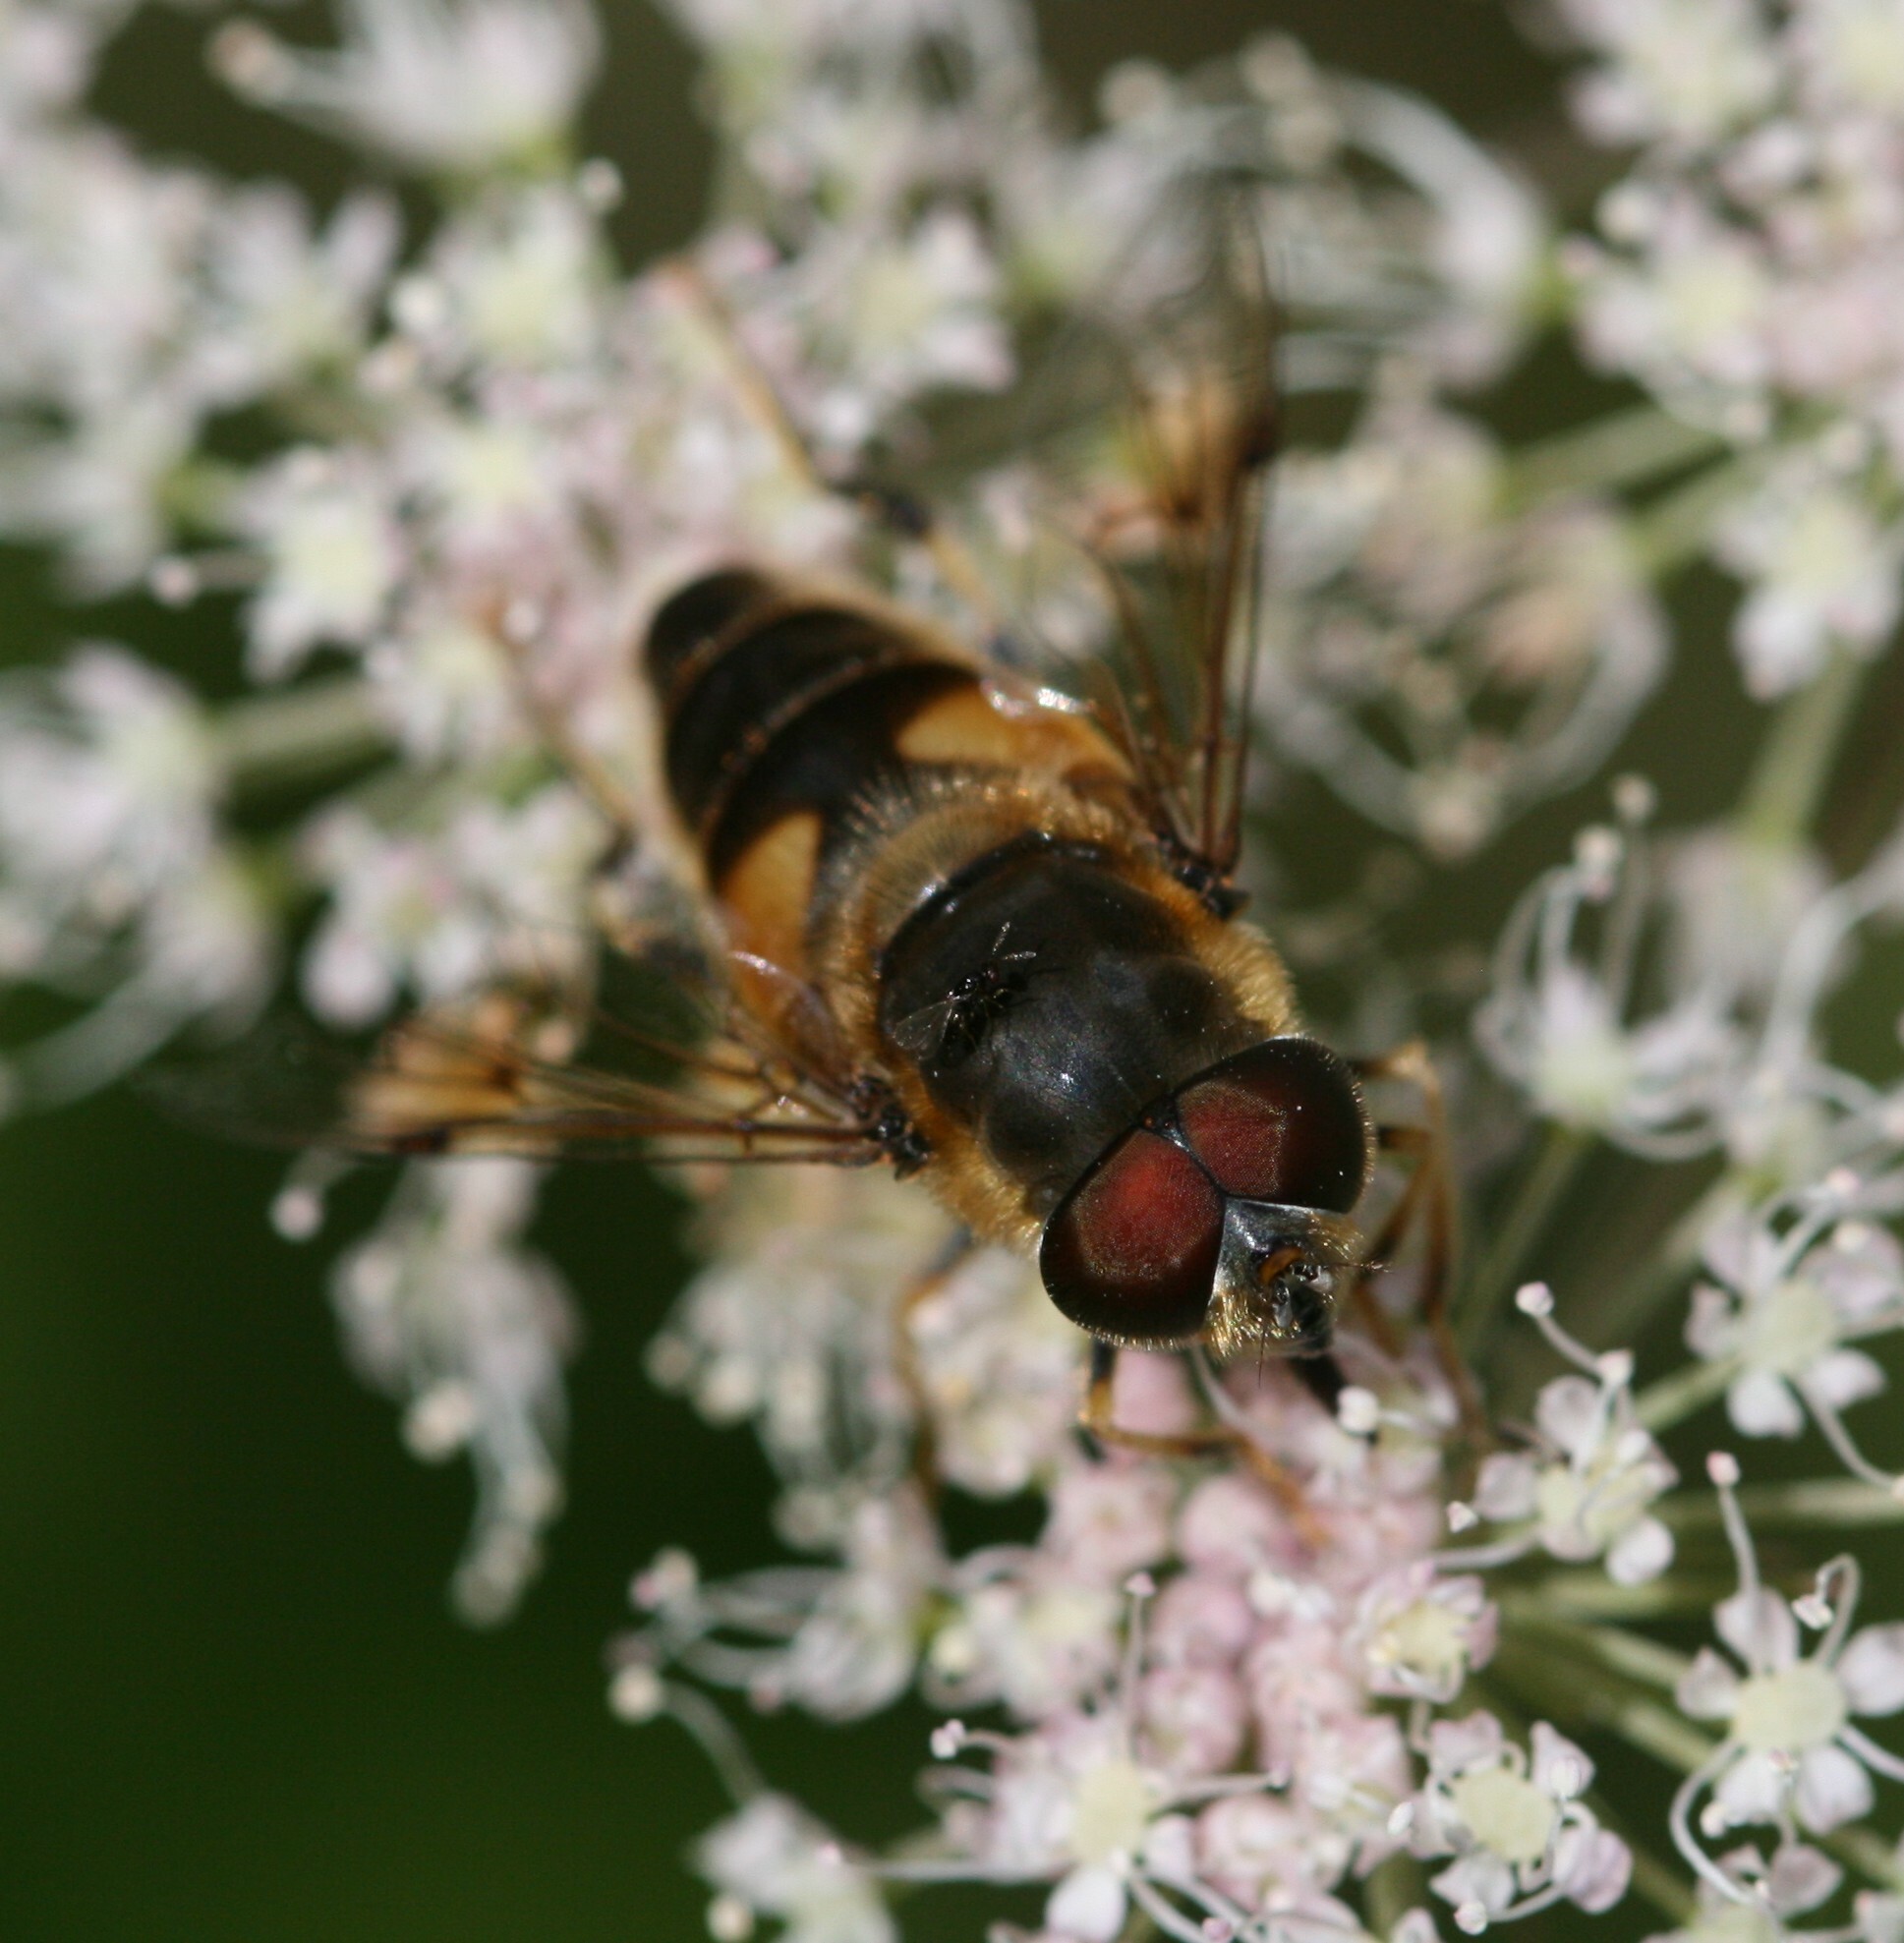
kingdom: Animalia
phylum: Arthropoda
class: Insecta
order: Diptera
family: Syrphidae
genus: Eristalis
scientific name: Eristalis pertinax
